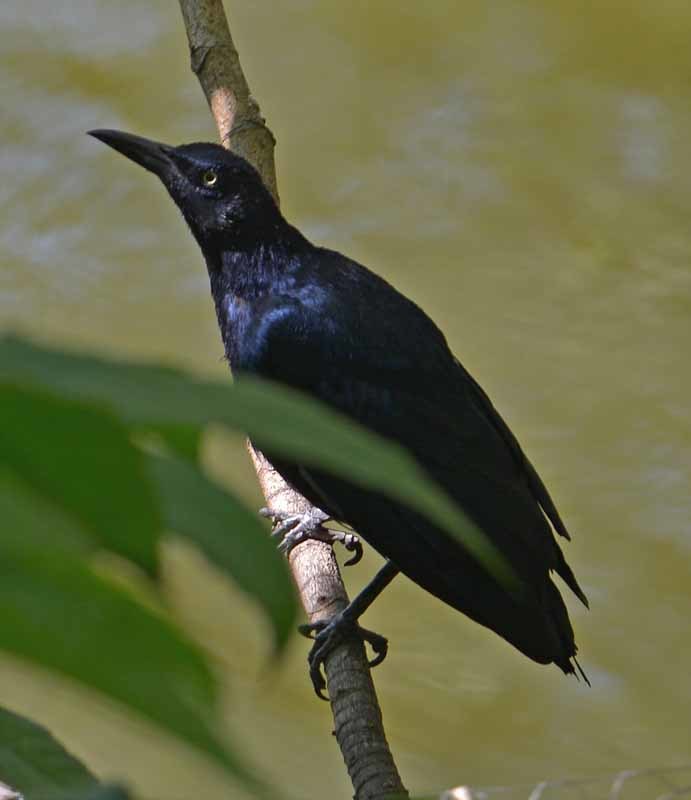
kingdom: Animalia
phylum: Chordata
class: Aves
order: Passeriformes
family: Icteridae
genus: Quiscalus
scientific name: Quiscalus mexicanus
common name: Great-tailed grackle
